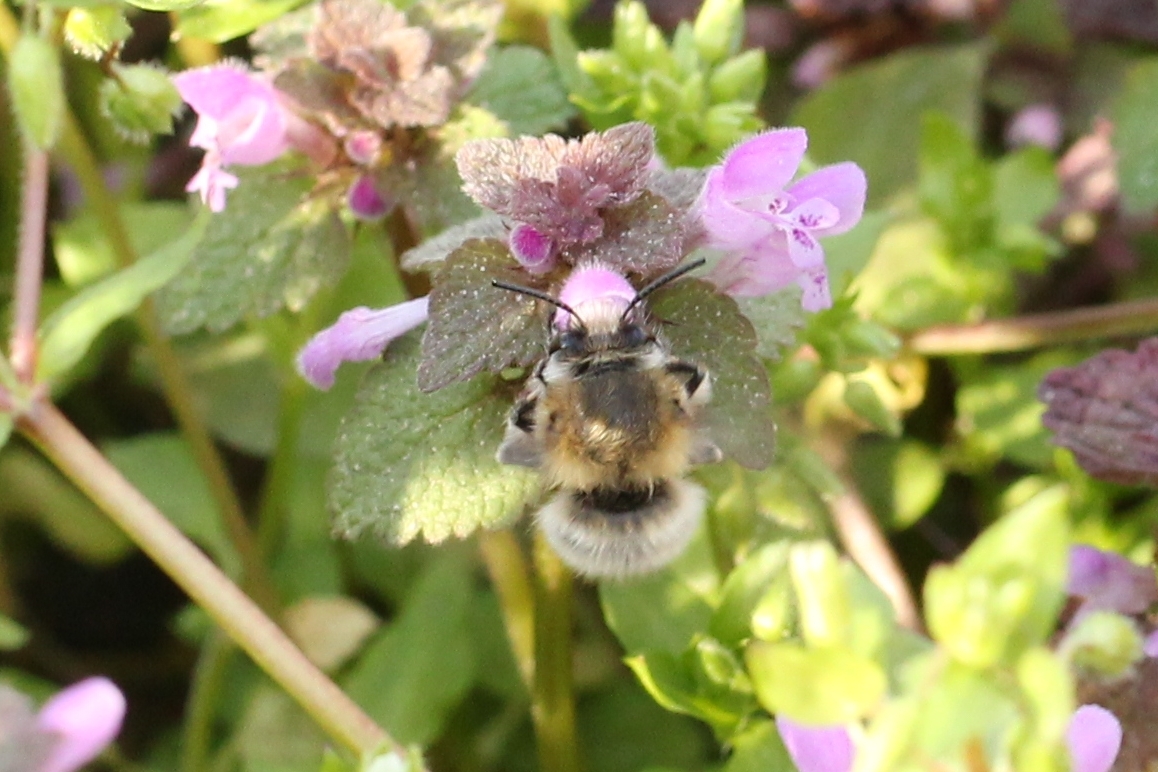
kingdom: Animalia
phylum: Arthropoda
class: Insecta
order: Hymenoptera
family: Apidae
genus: Anthophora
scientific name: Anthophora plumipes
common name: Hairy-footed flower bee
